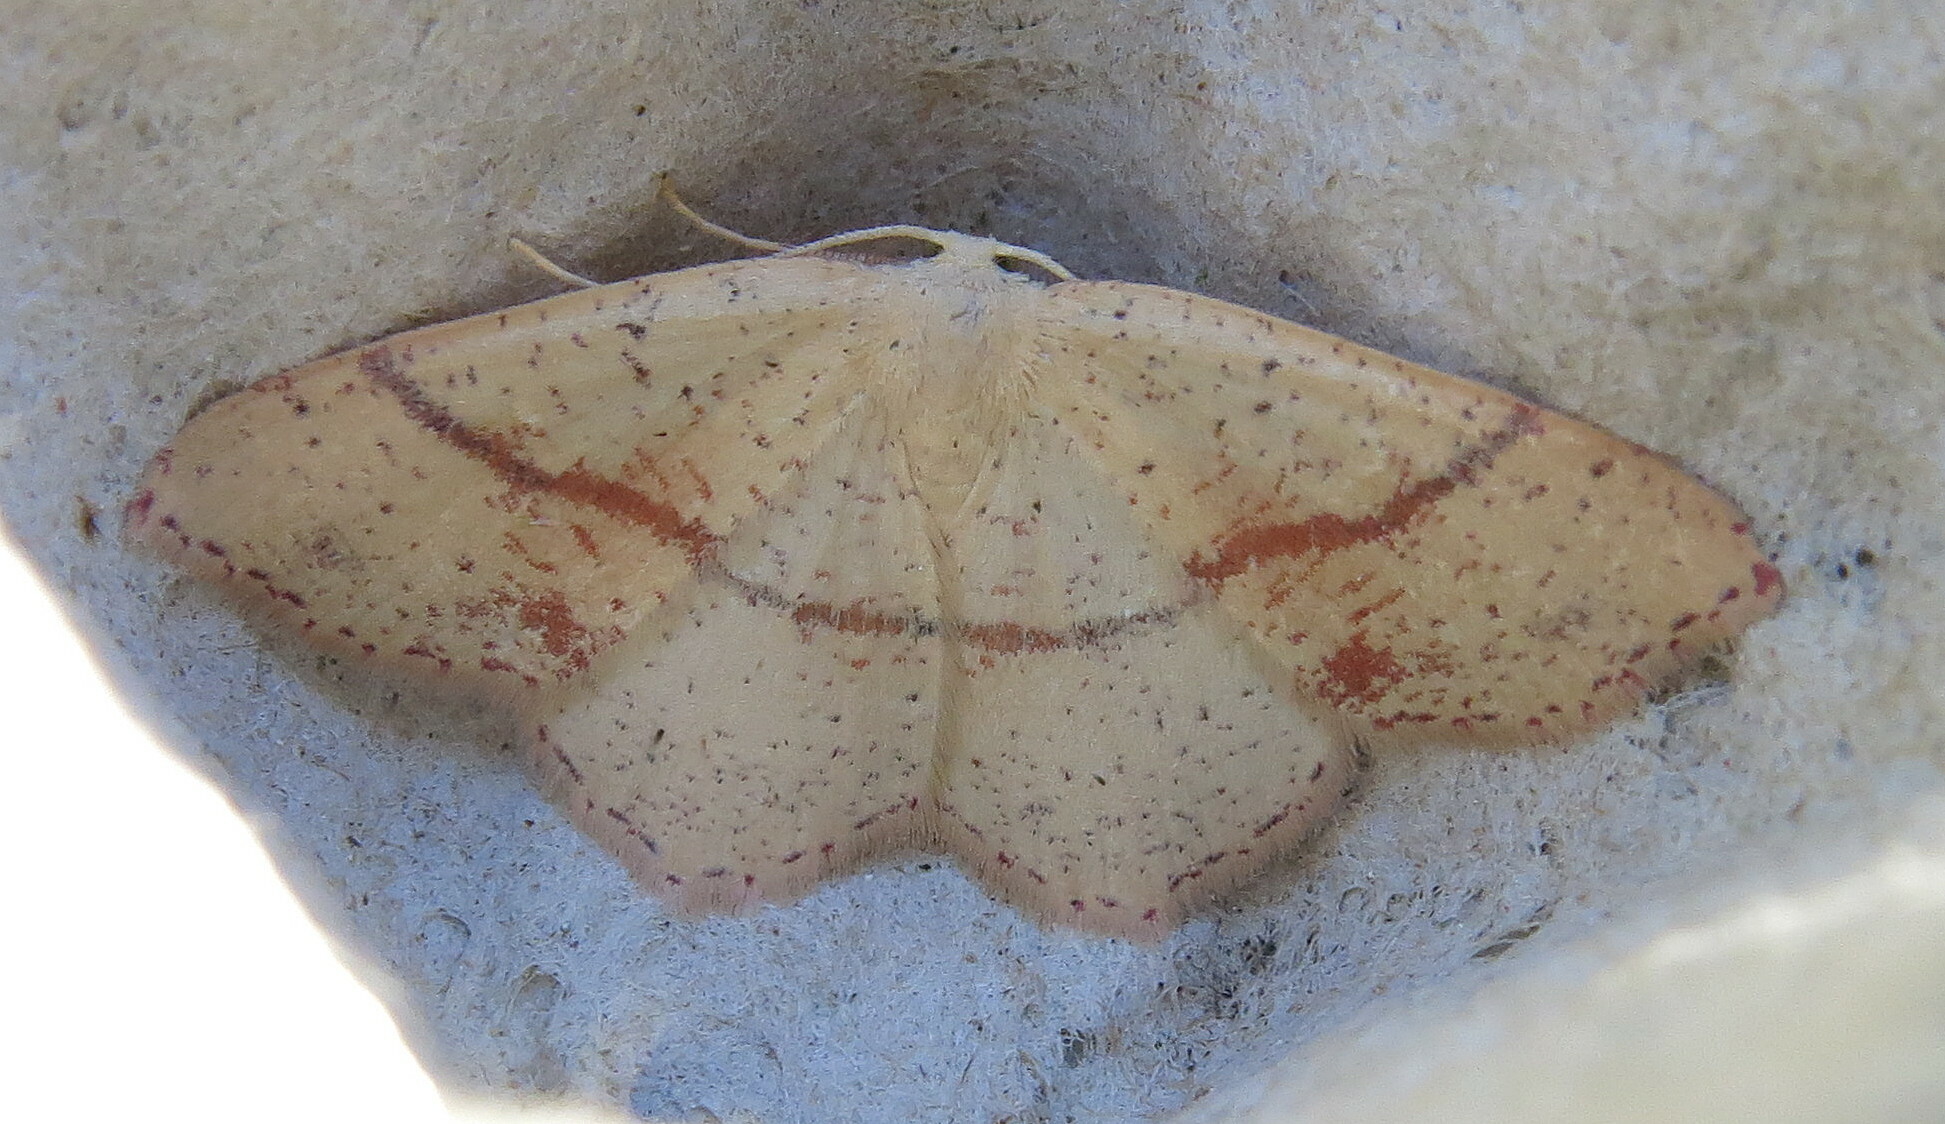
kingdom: Animalia
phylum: Arthropoda
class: Insecta
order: Lepidoptera
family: Geometridae
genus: Cyclophora
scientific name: Cyclophora punctaria
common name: Maiden's blush
